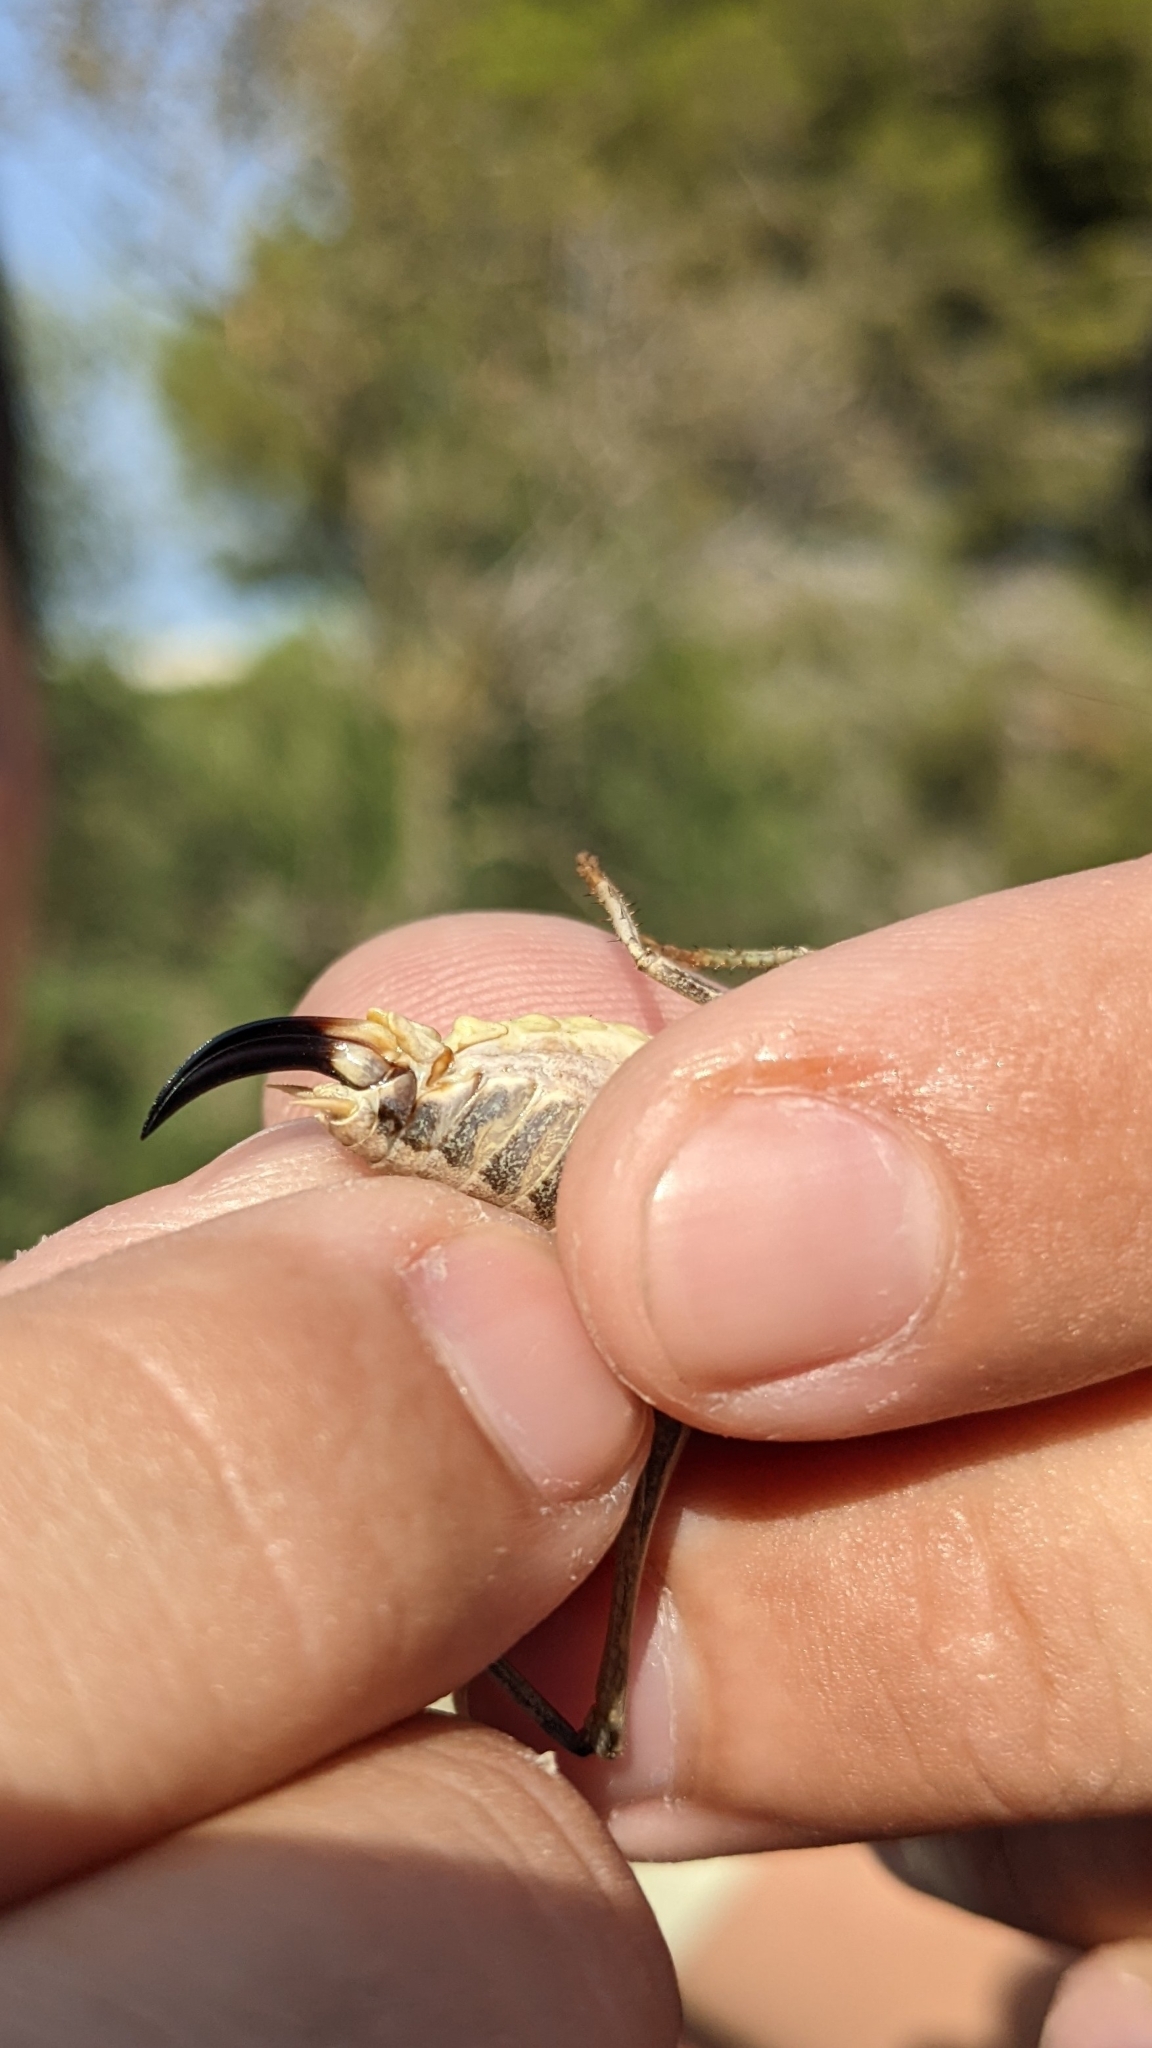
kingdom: Animalia
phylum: Arthropoda
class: Insecta
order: Orthoptera
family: Tettigoniidae
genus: Platycleis
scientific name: Platycleis falx
